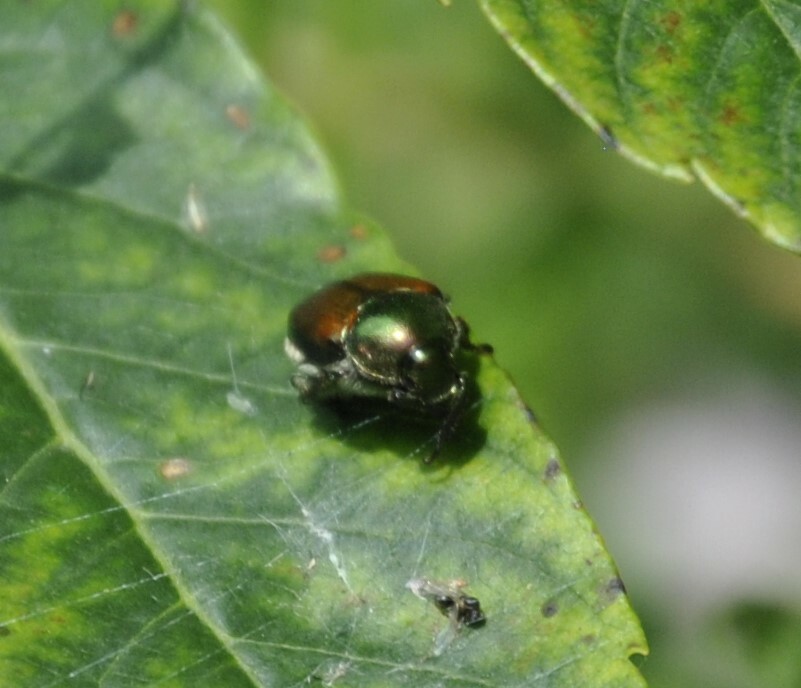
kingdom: Animalia
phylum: Arthropoda
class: Insecta
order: Coleoptera
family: Scarabaeidae
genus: Popillia
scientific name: Popillia japonica
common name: Japanese beetle
